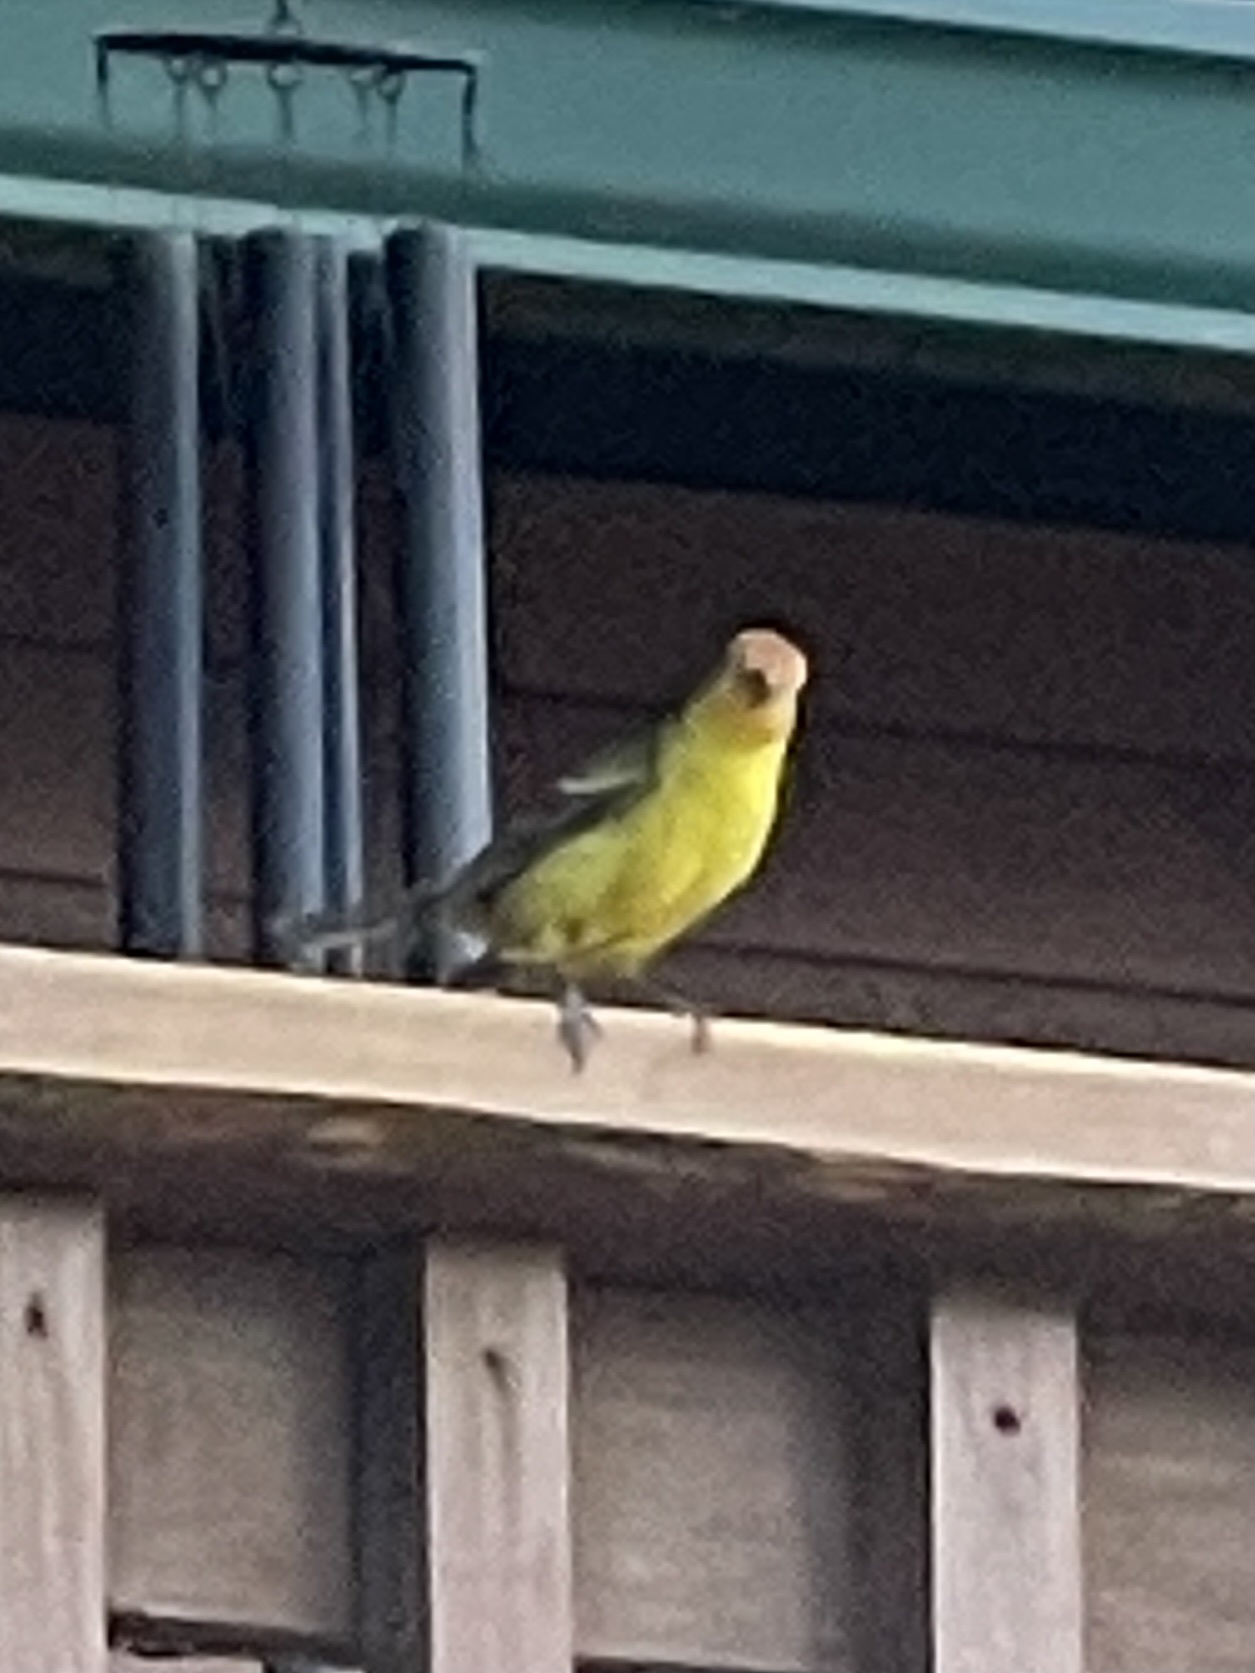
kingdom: Animalia
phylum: Chordata
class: Aves
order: Passeriformes
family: Cardinalidae
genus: Piranga
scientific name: Piranga ludoviciana
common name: Western tanager
